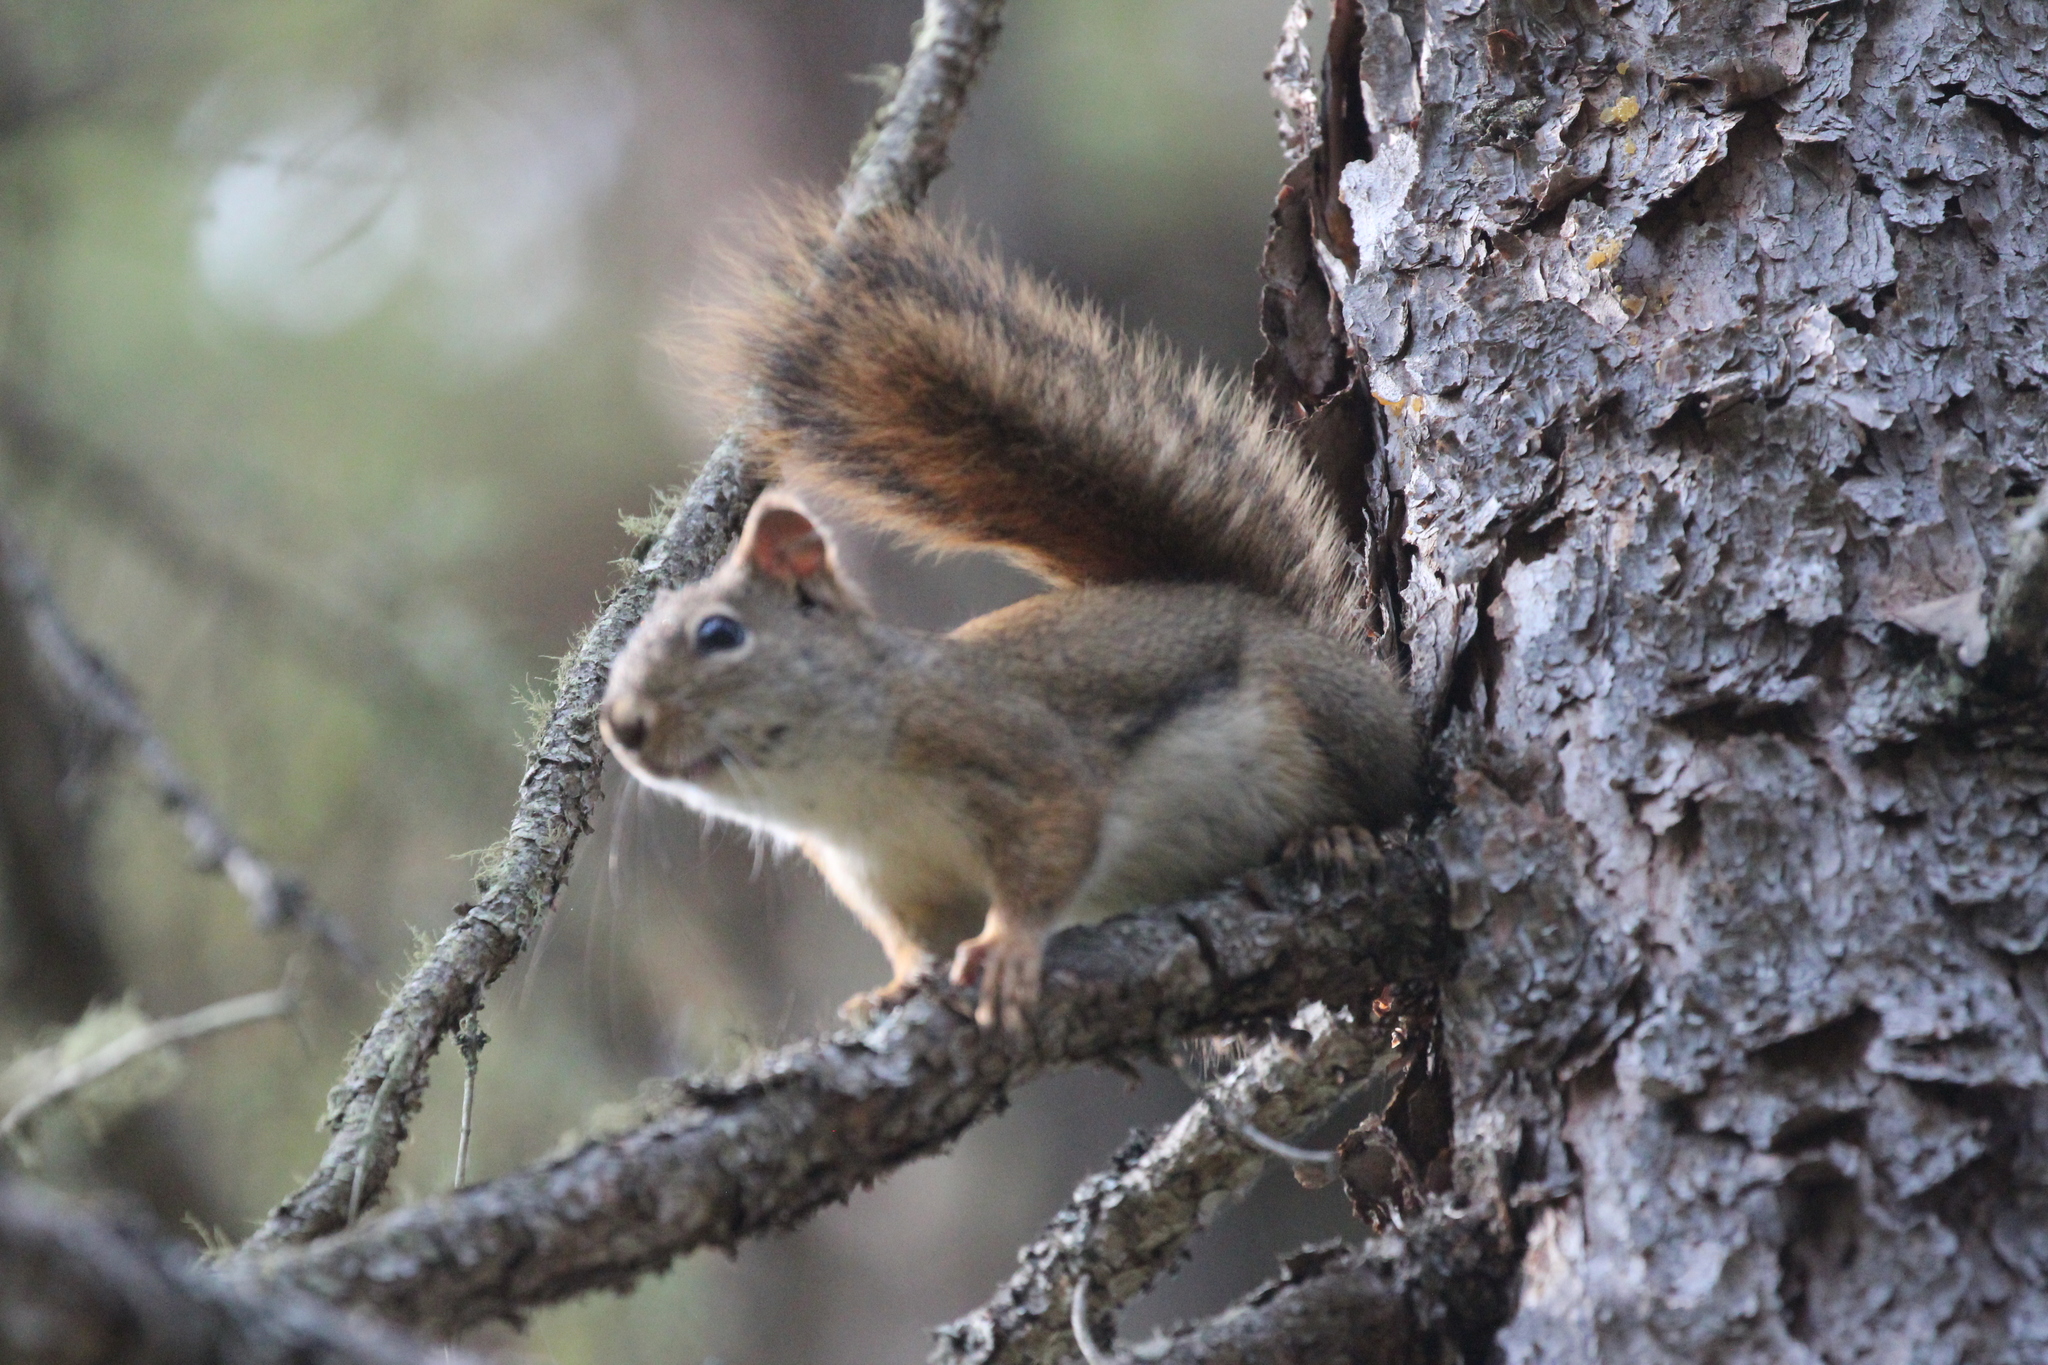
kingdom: Animalia
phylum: Chordata
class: Mammalia
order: Rodentia
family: Sciuridae
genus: Tamiasciurus
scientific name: Tamiasciurus hudsonicus
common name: Red squirrel
